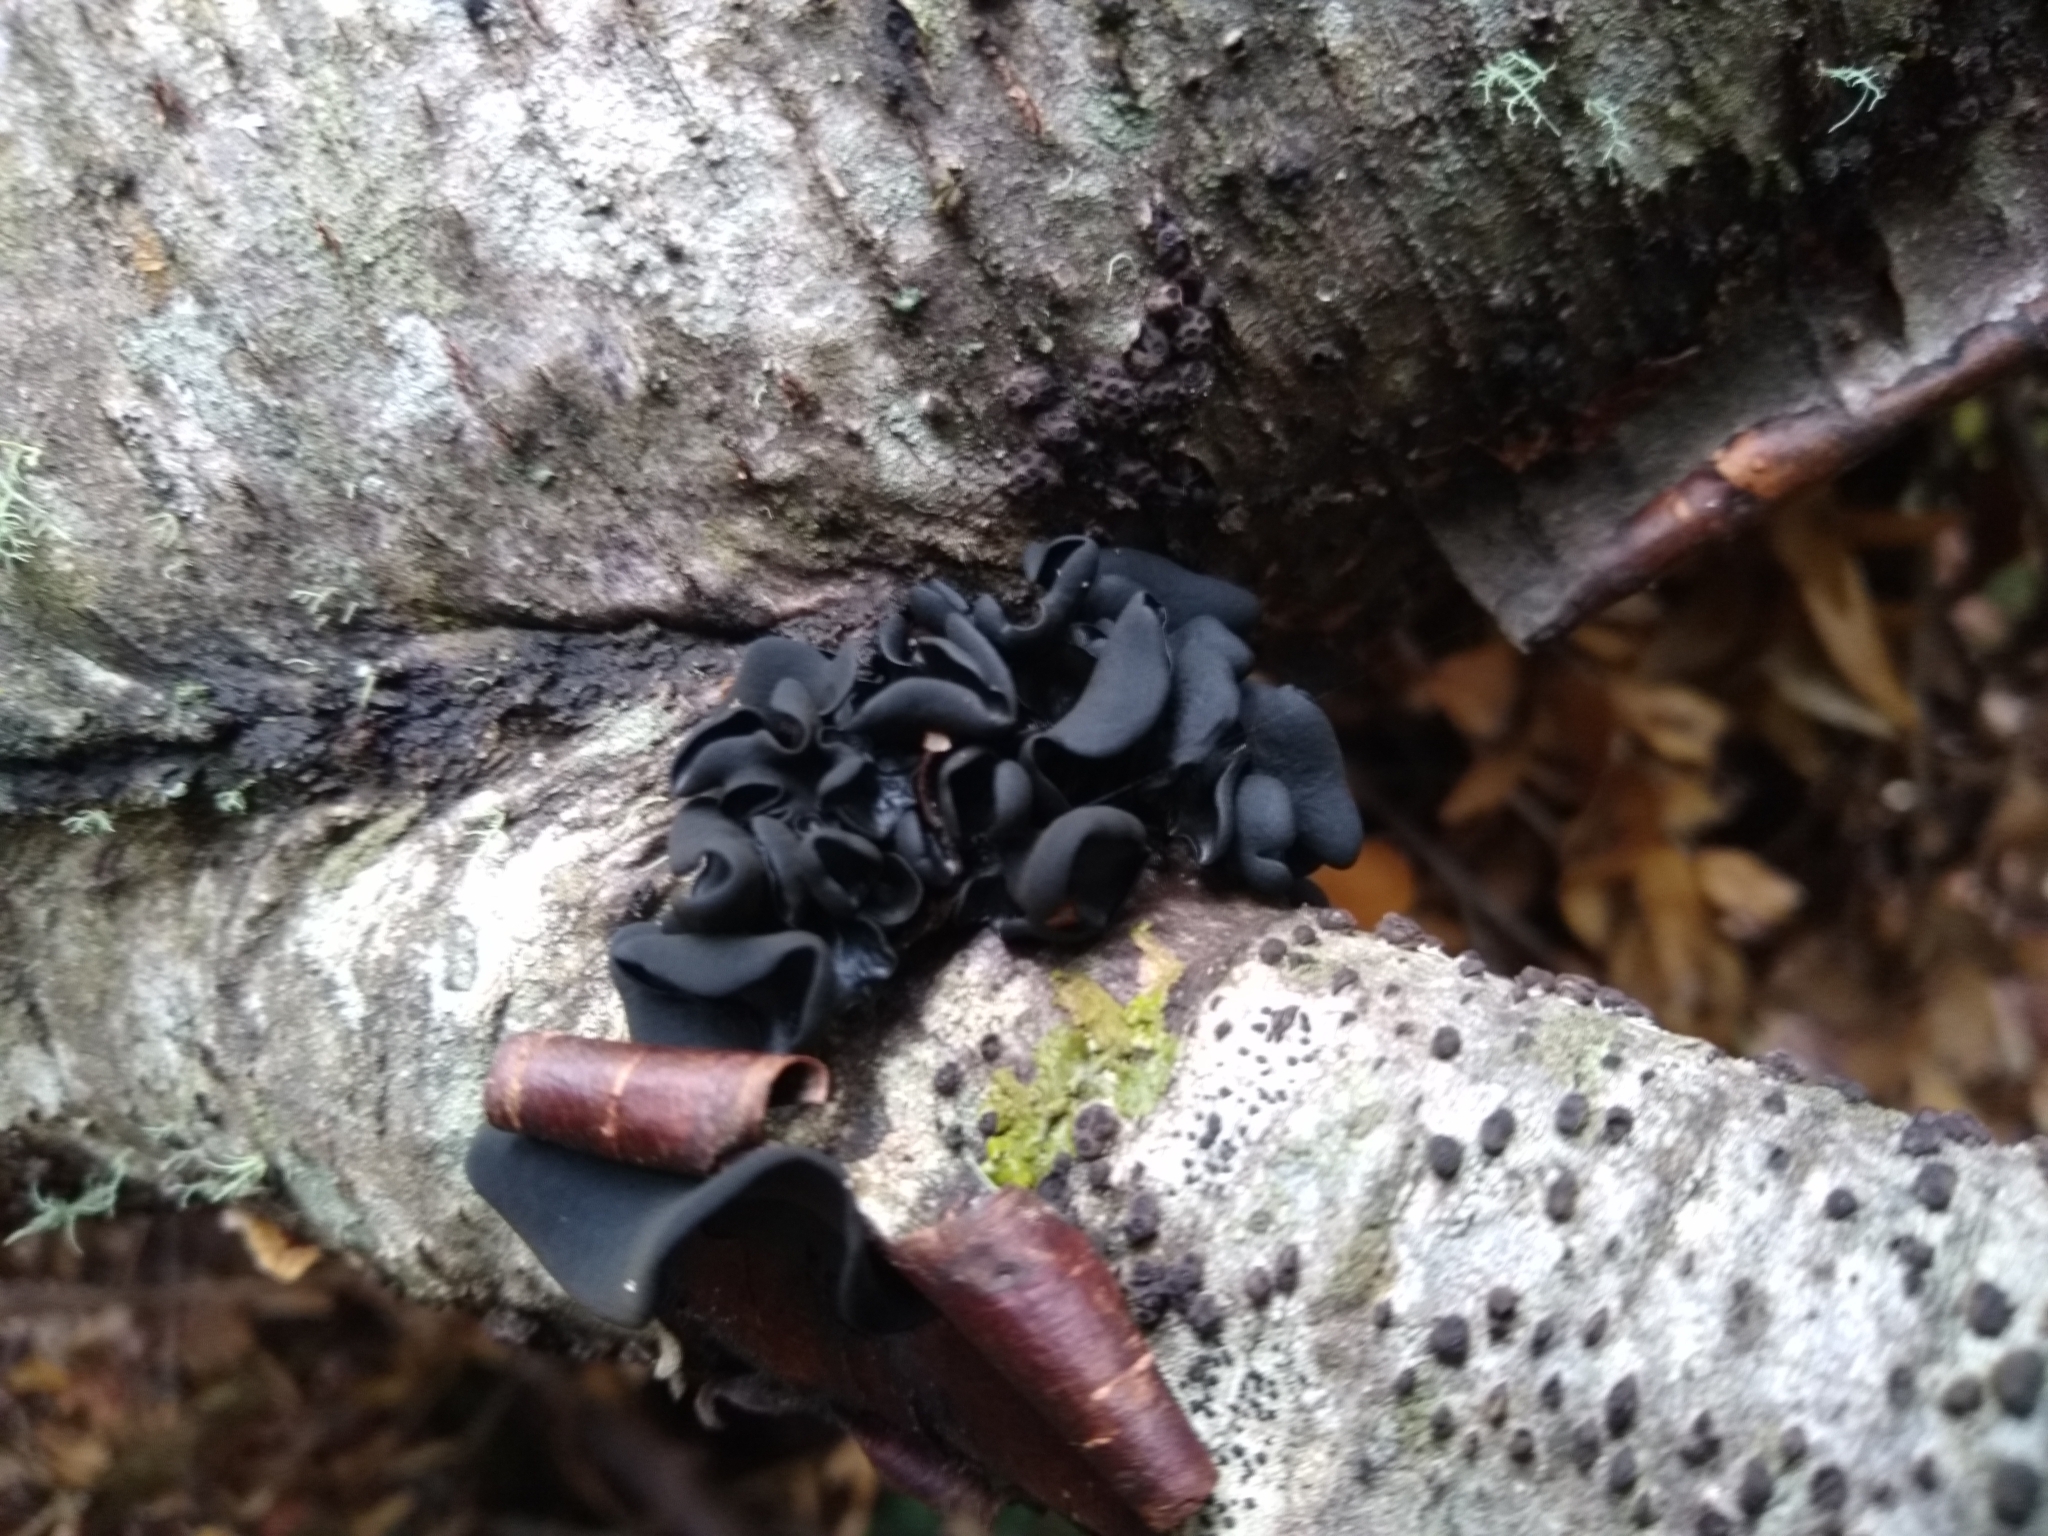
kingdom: Fungi
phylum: Ascomycota
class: Leotiomycetes
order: Helotiales
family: Cordieritidaceae
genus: Ameghiniella
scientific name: Ameghiniella australis
